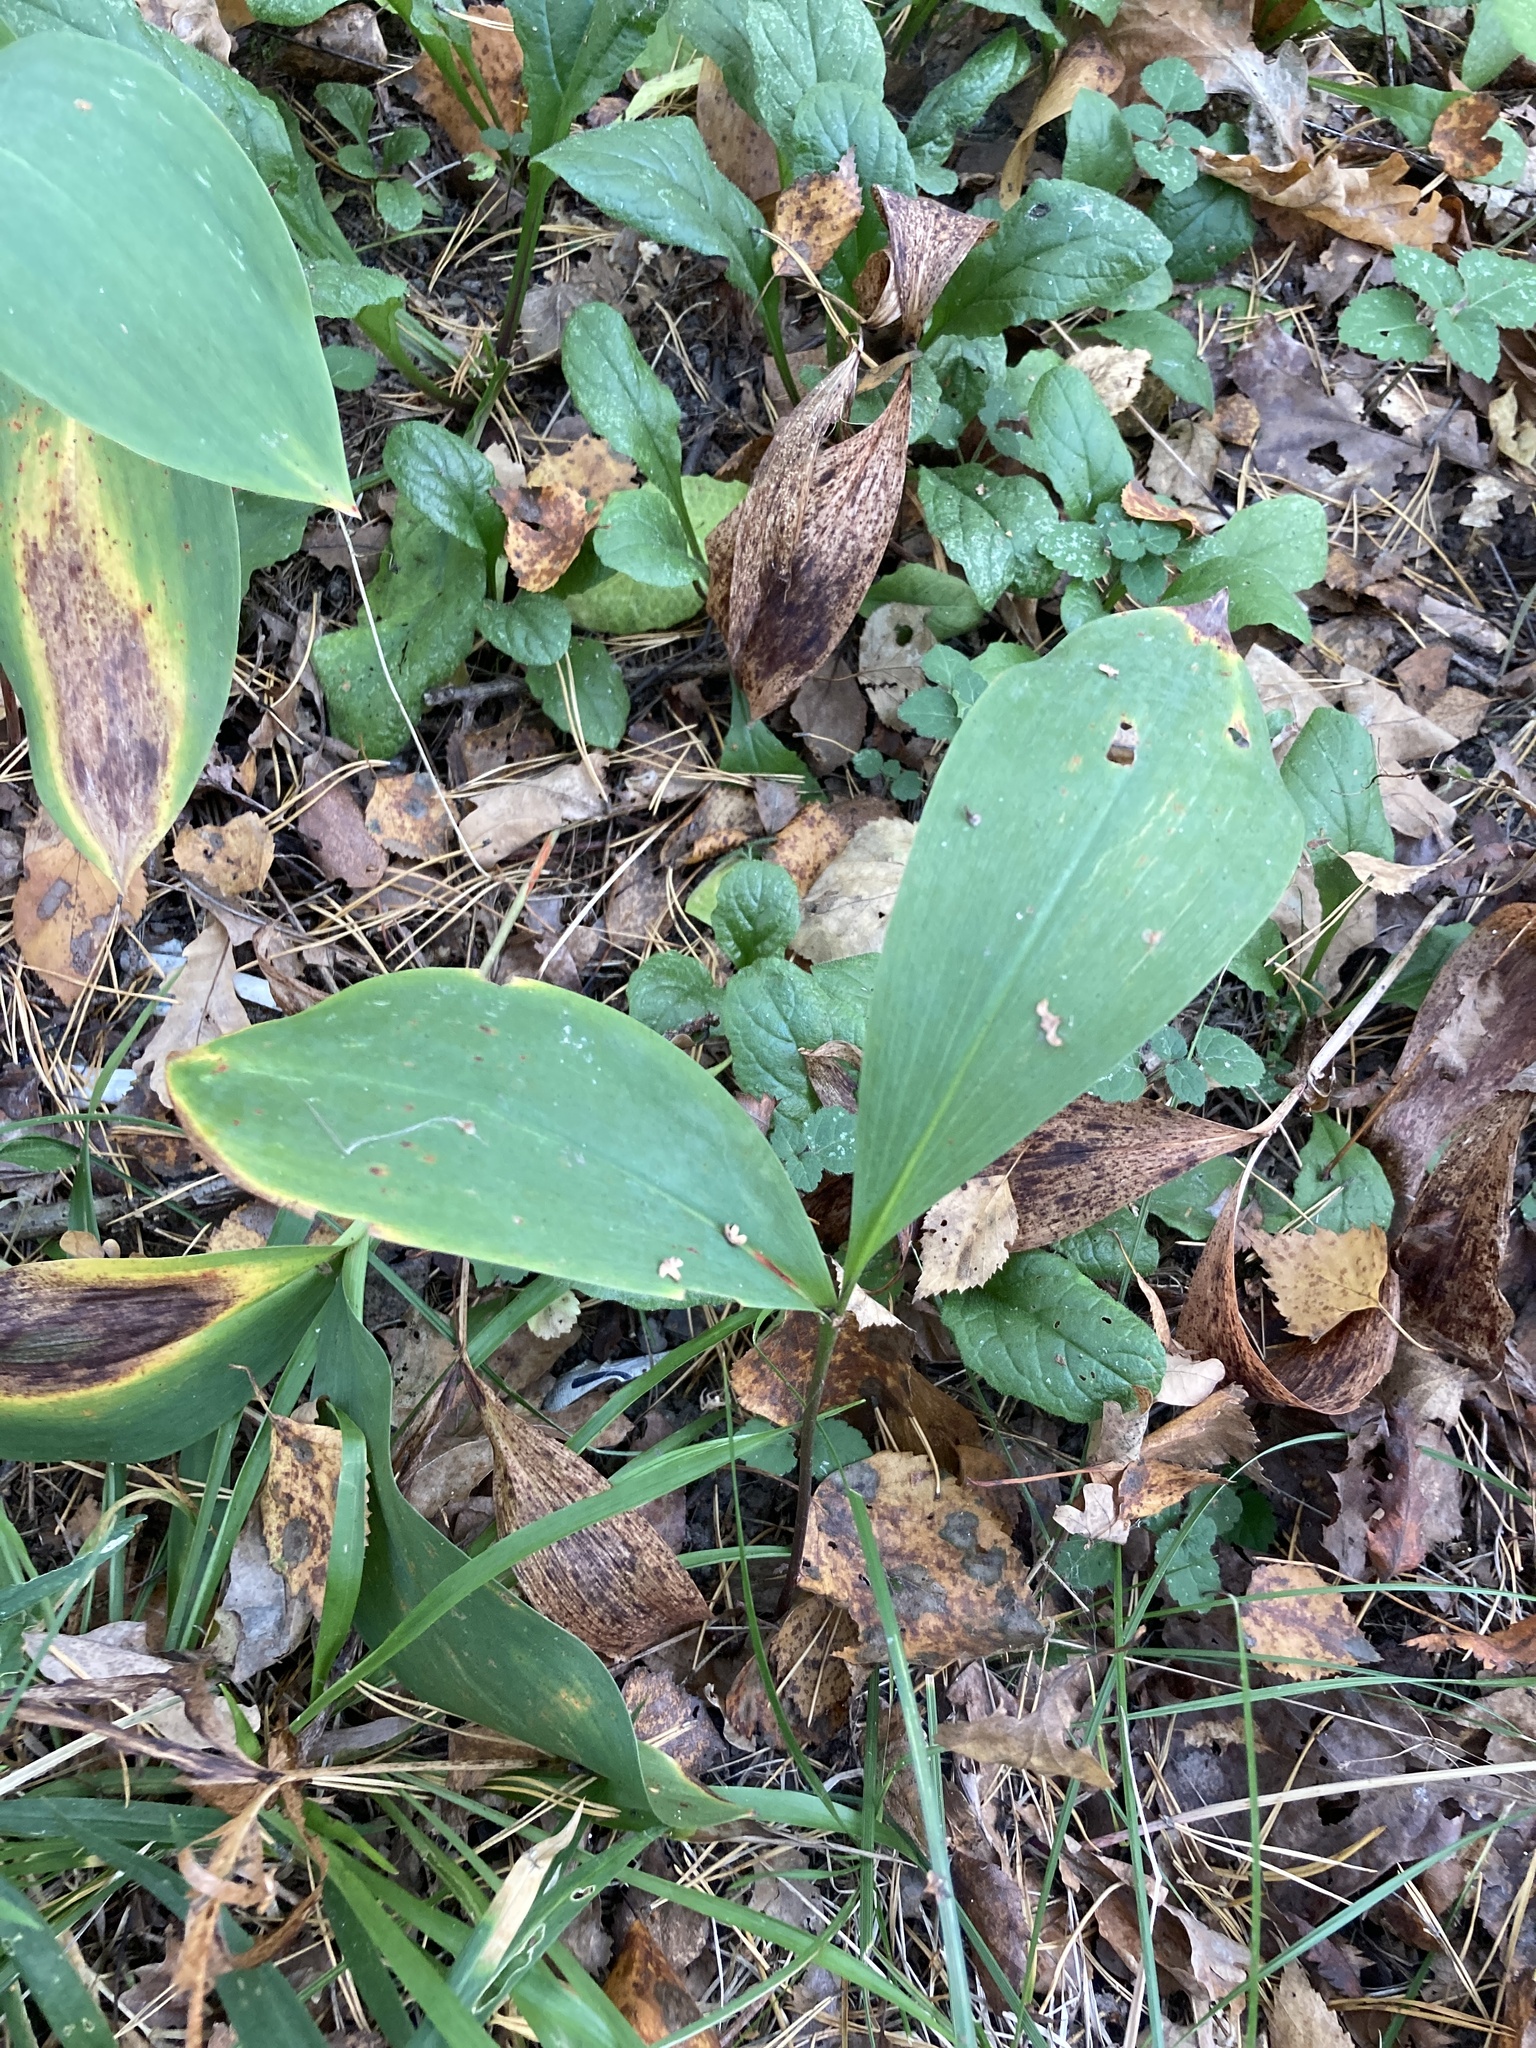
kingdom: Plantae
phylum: Tracheophyta
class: Liliopsida
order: Asparagales
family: Asparagaceae
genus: Convallaria
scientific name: Convallaria majalis
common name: Lily-of-the-valley
